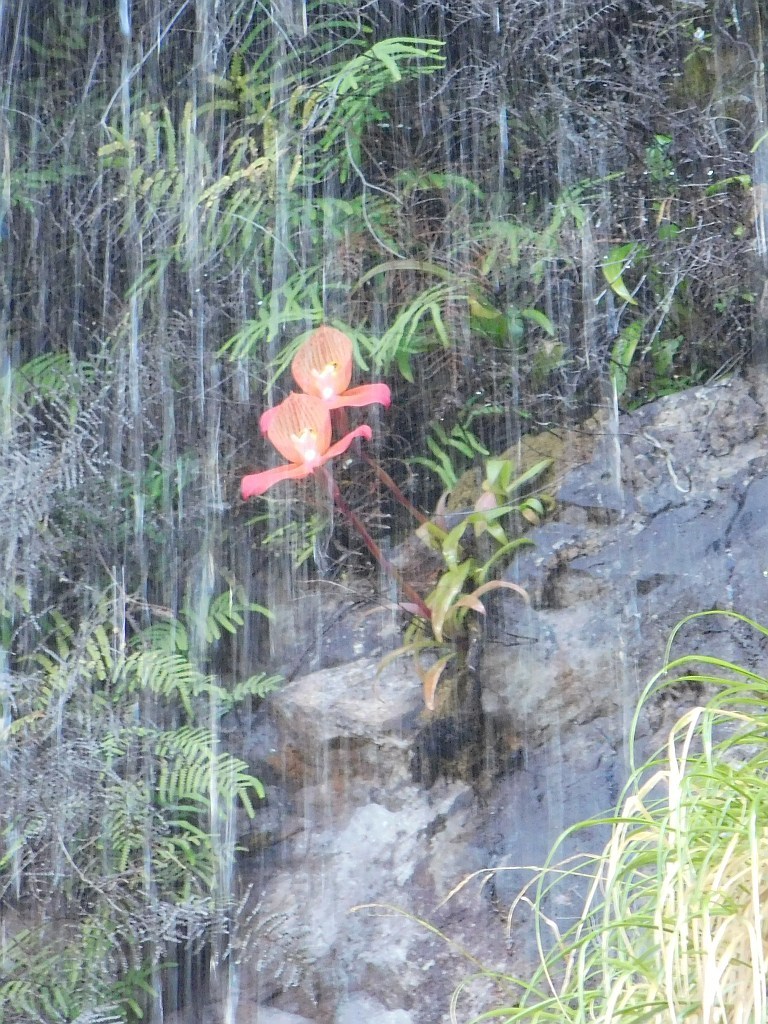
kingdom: Plantae
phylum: Tracheophyta
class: Liliopsida
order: Asparagales
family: Orchidaceae
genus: Disa
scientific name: Disa uniflora
